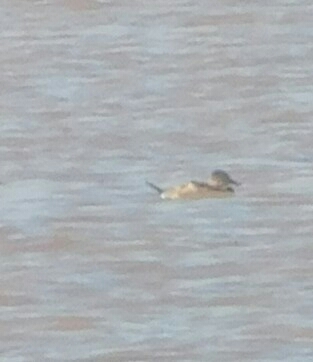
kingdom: Animalia
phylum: Chordata
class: Aves
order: Anseriformes
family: Anatidae
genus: Oxyura
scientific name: Oxyura jamaicensis
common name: Ruddy duck
